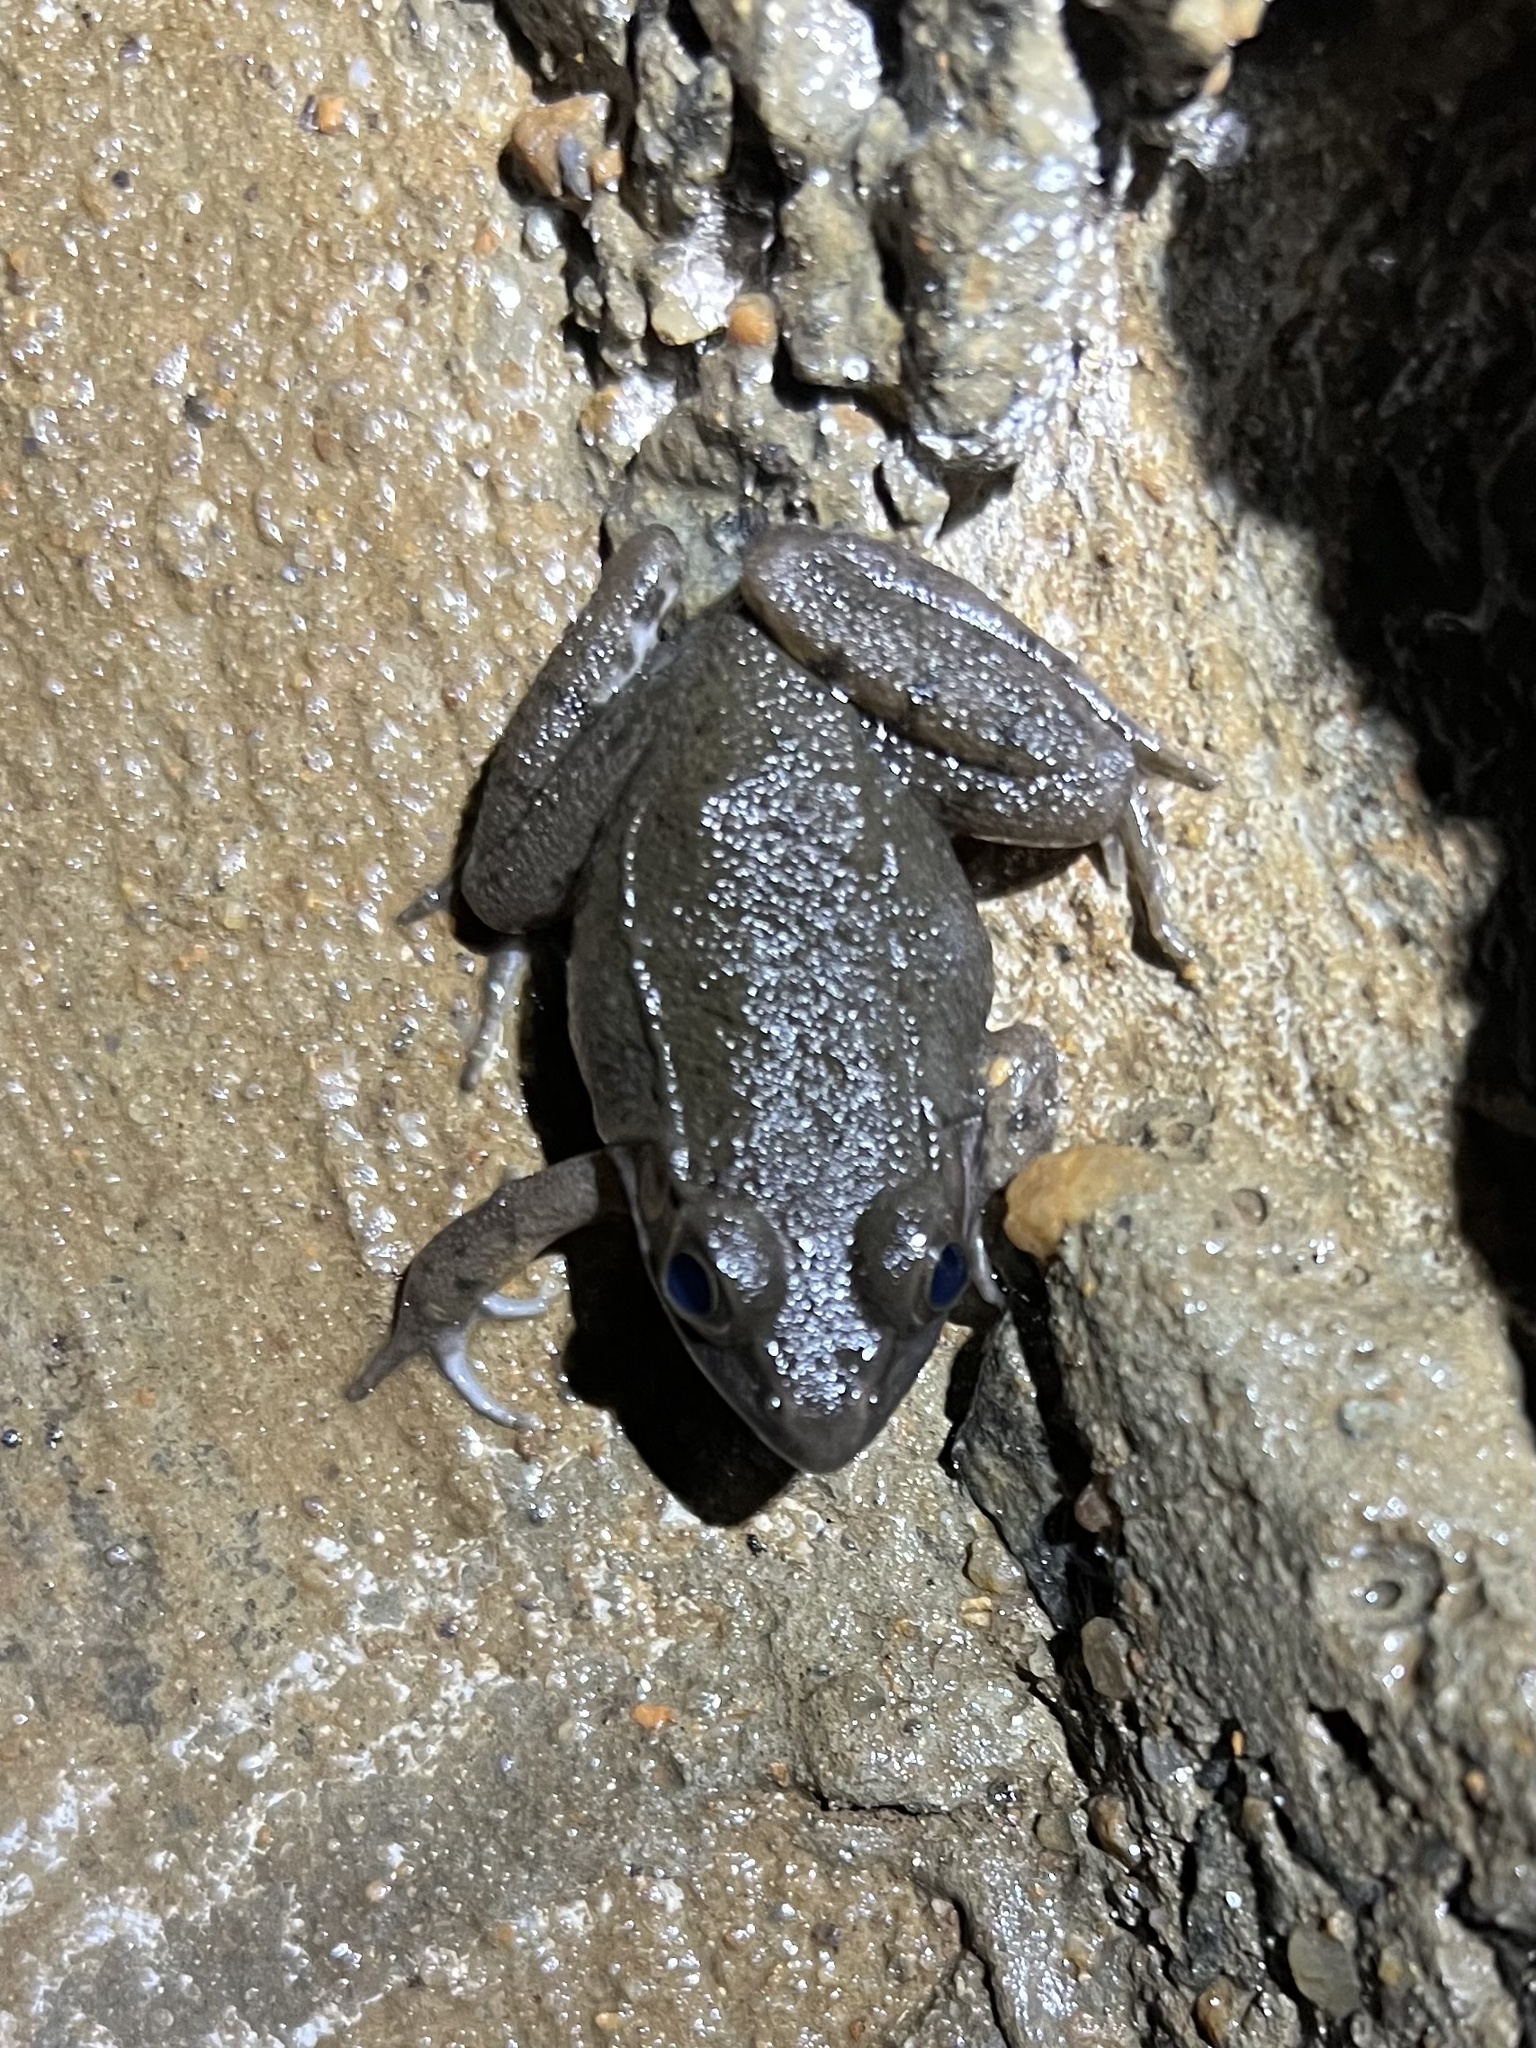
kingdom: Animalia
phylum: Chordata
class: Amphibia
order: Anura
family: Ranidae
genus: Lithobates
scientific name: Lithobates clamitans
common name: Green frog
